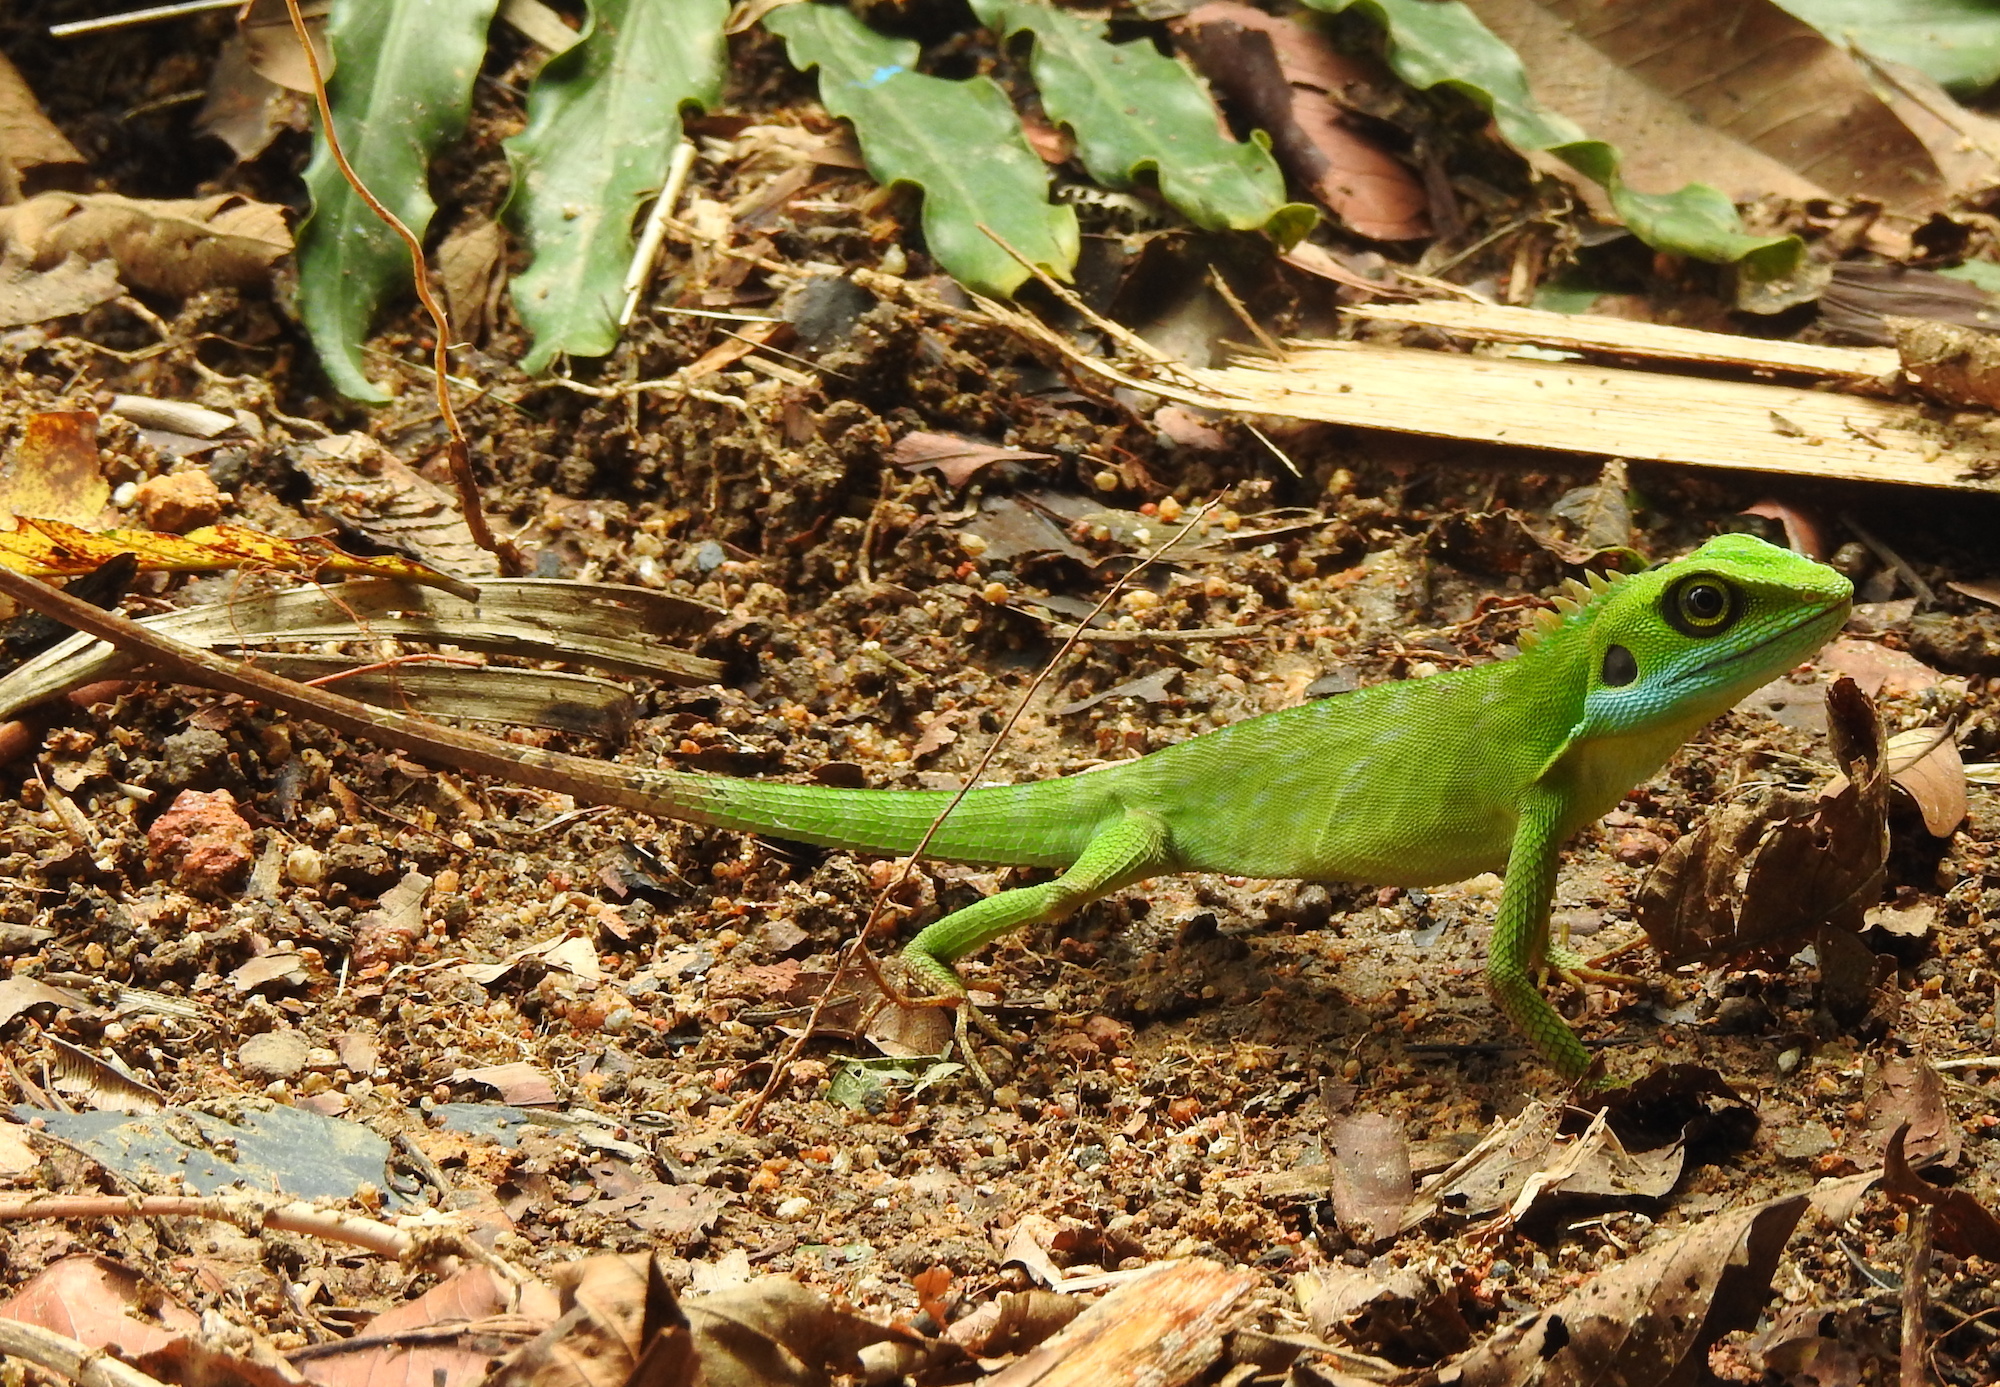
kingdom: Animalia
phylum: Chordata
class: Squamata
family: Agamidae
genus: Bronchocela
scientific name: Bronchocela cristatella
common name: Green crested lizard
